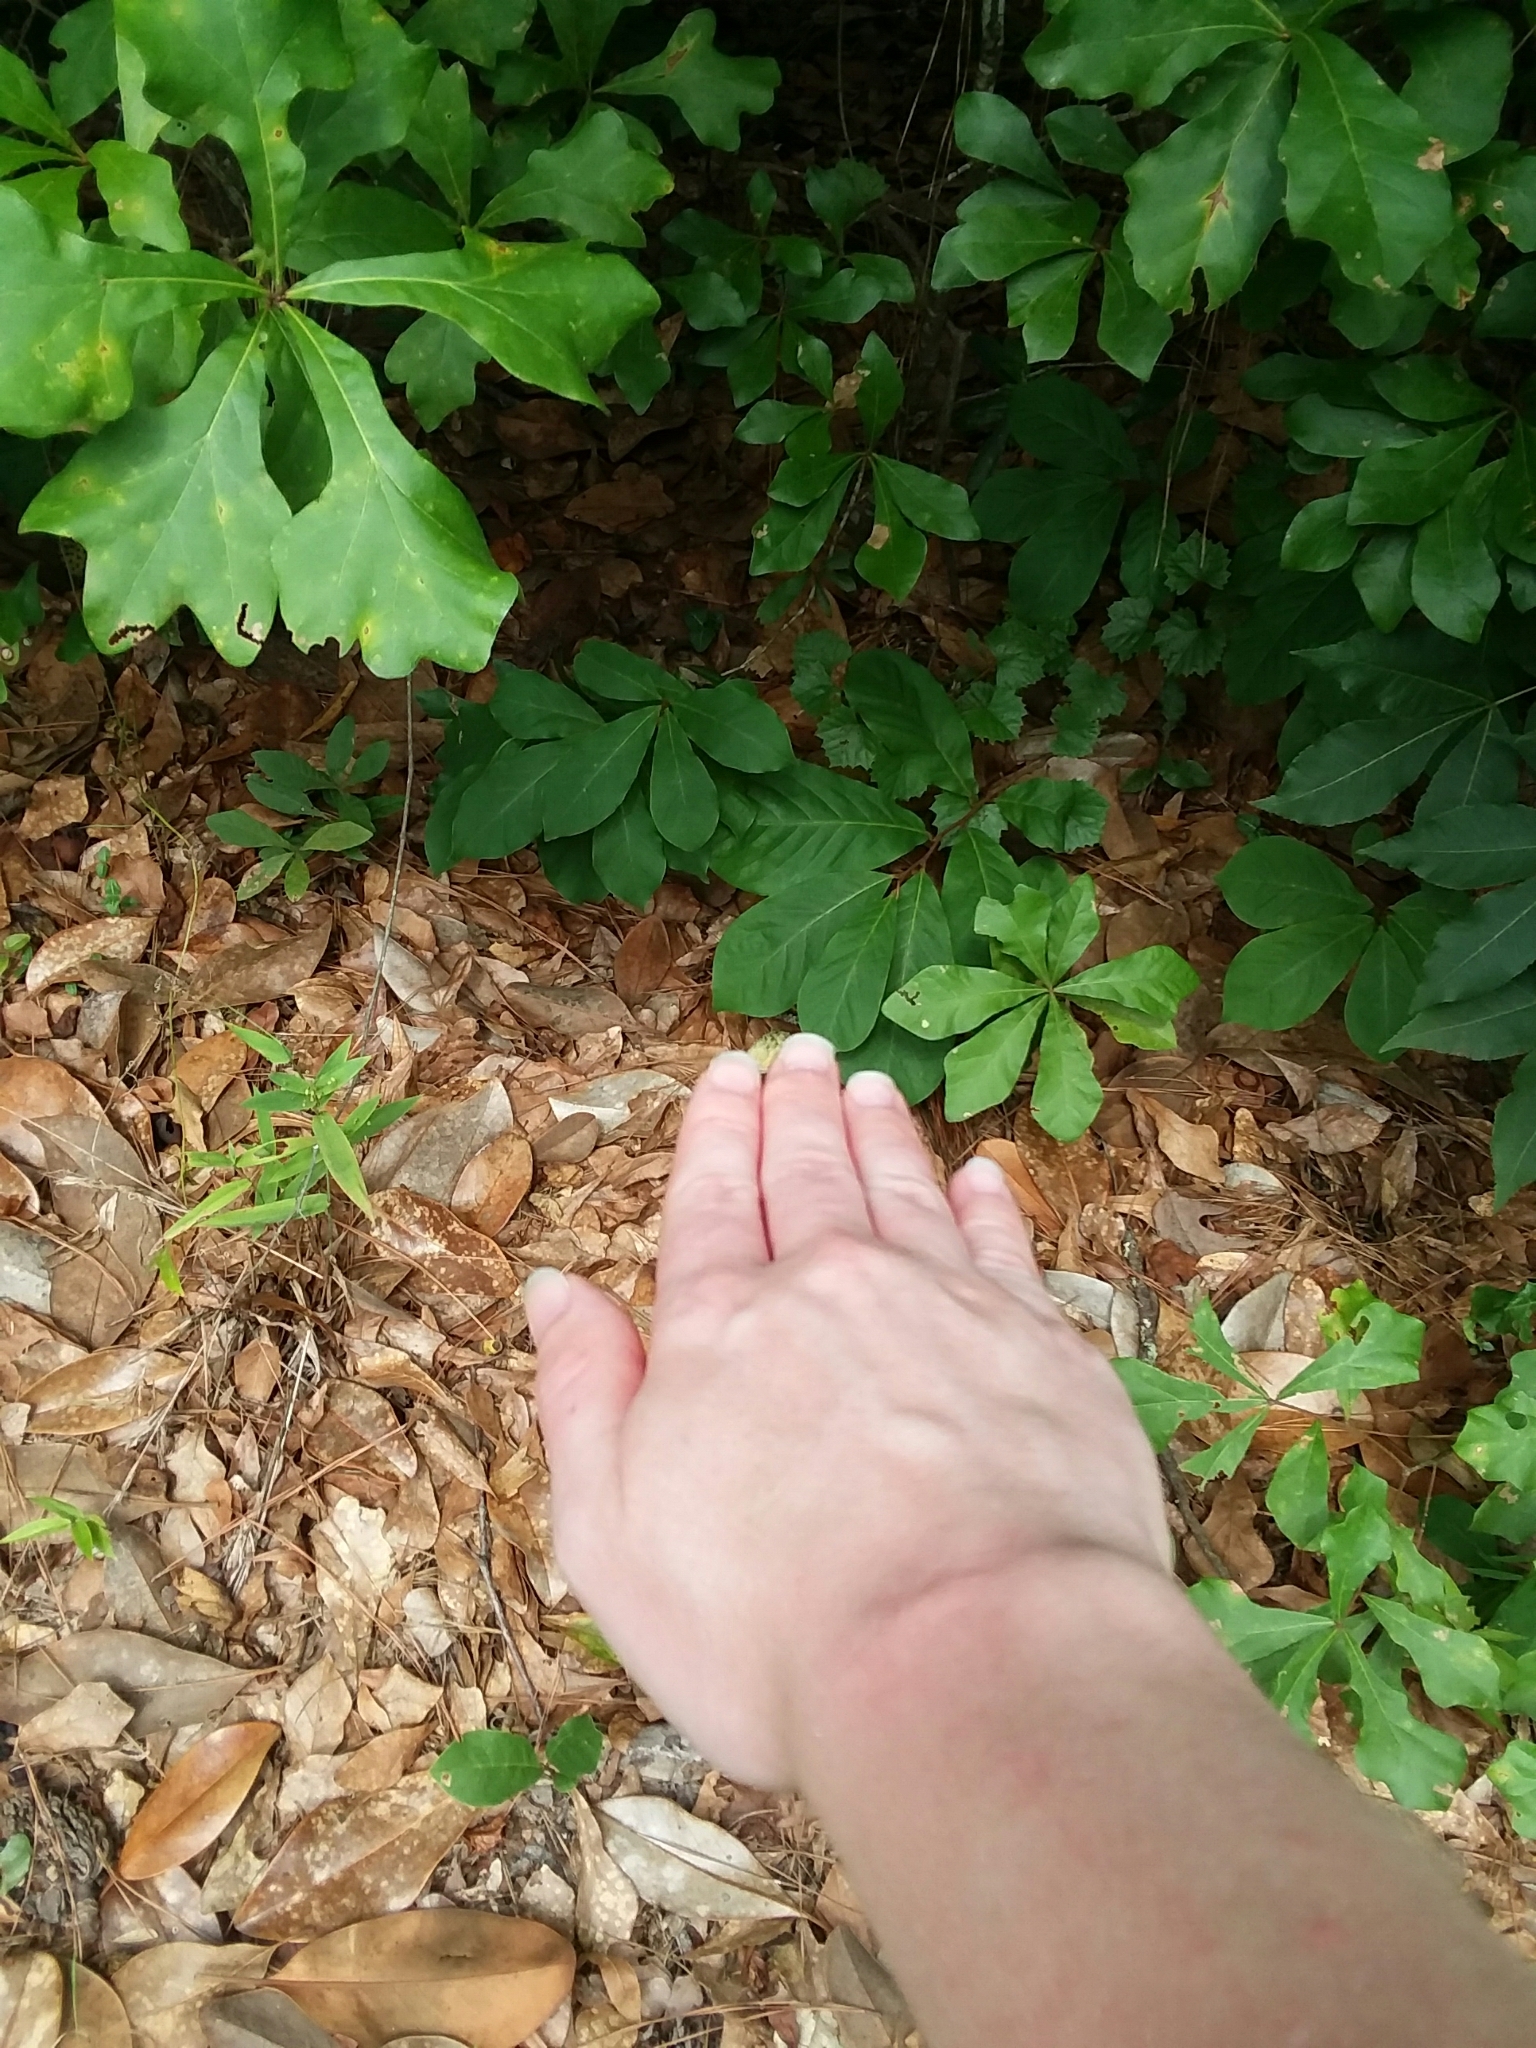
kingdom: Plantae
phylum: Tracheophyta
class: Magnoliopsida
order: Magnoliales
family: Annonaceae
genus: Asimina
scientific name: Asimina parviflora
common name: Dwarf pawpaw
